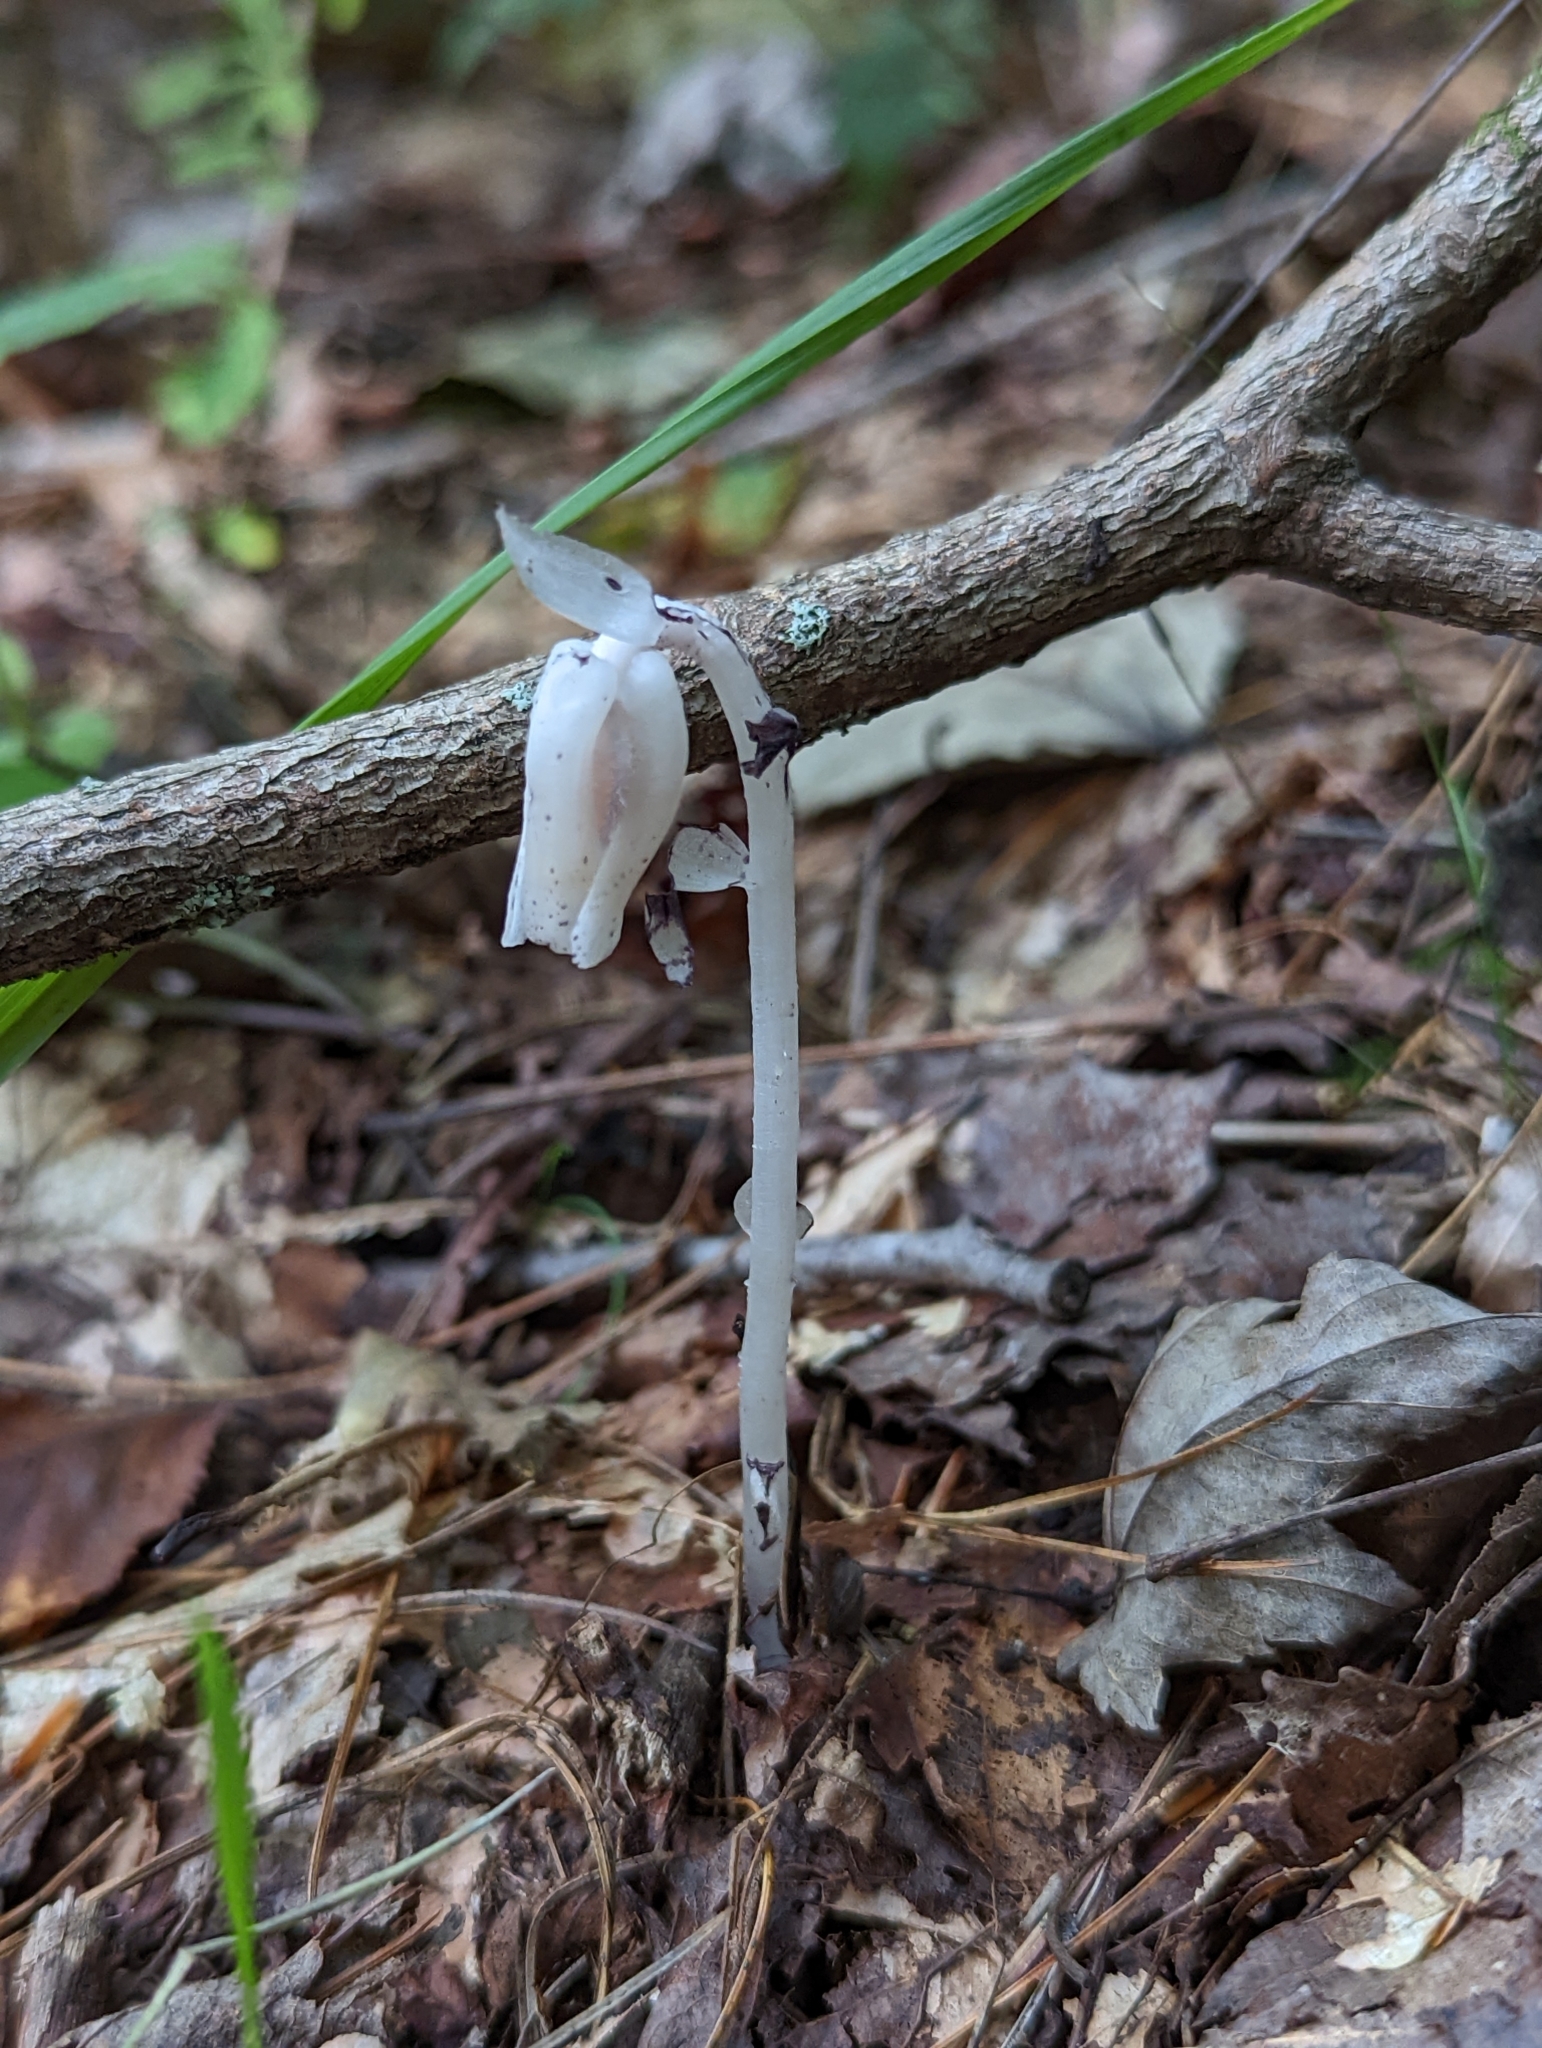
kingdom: Plantae
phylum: Tracheophyta
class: Magnoliopsida
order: Ericales
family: Ericaceae
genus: Monotropa
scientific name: Monotropa uniflora
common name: Convulsion root
